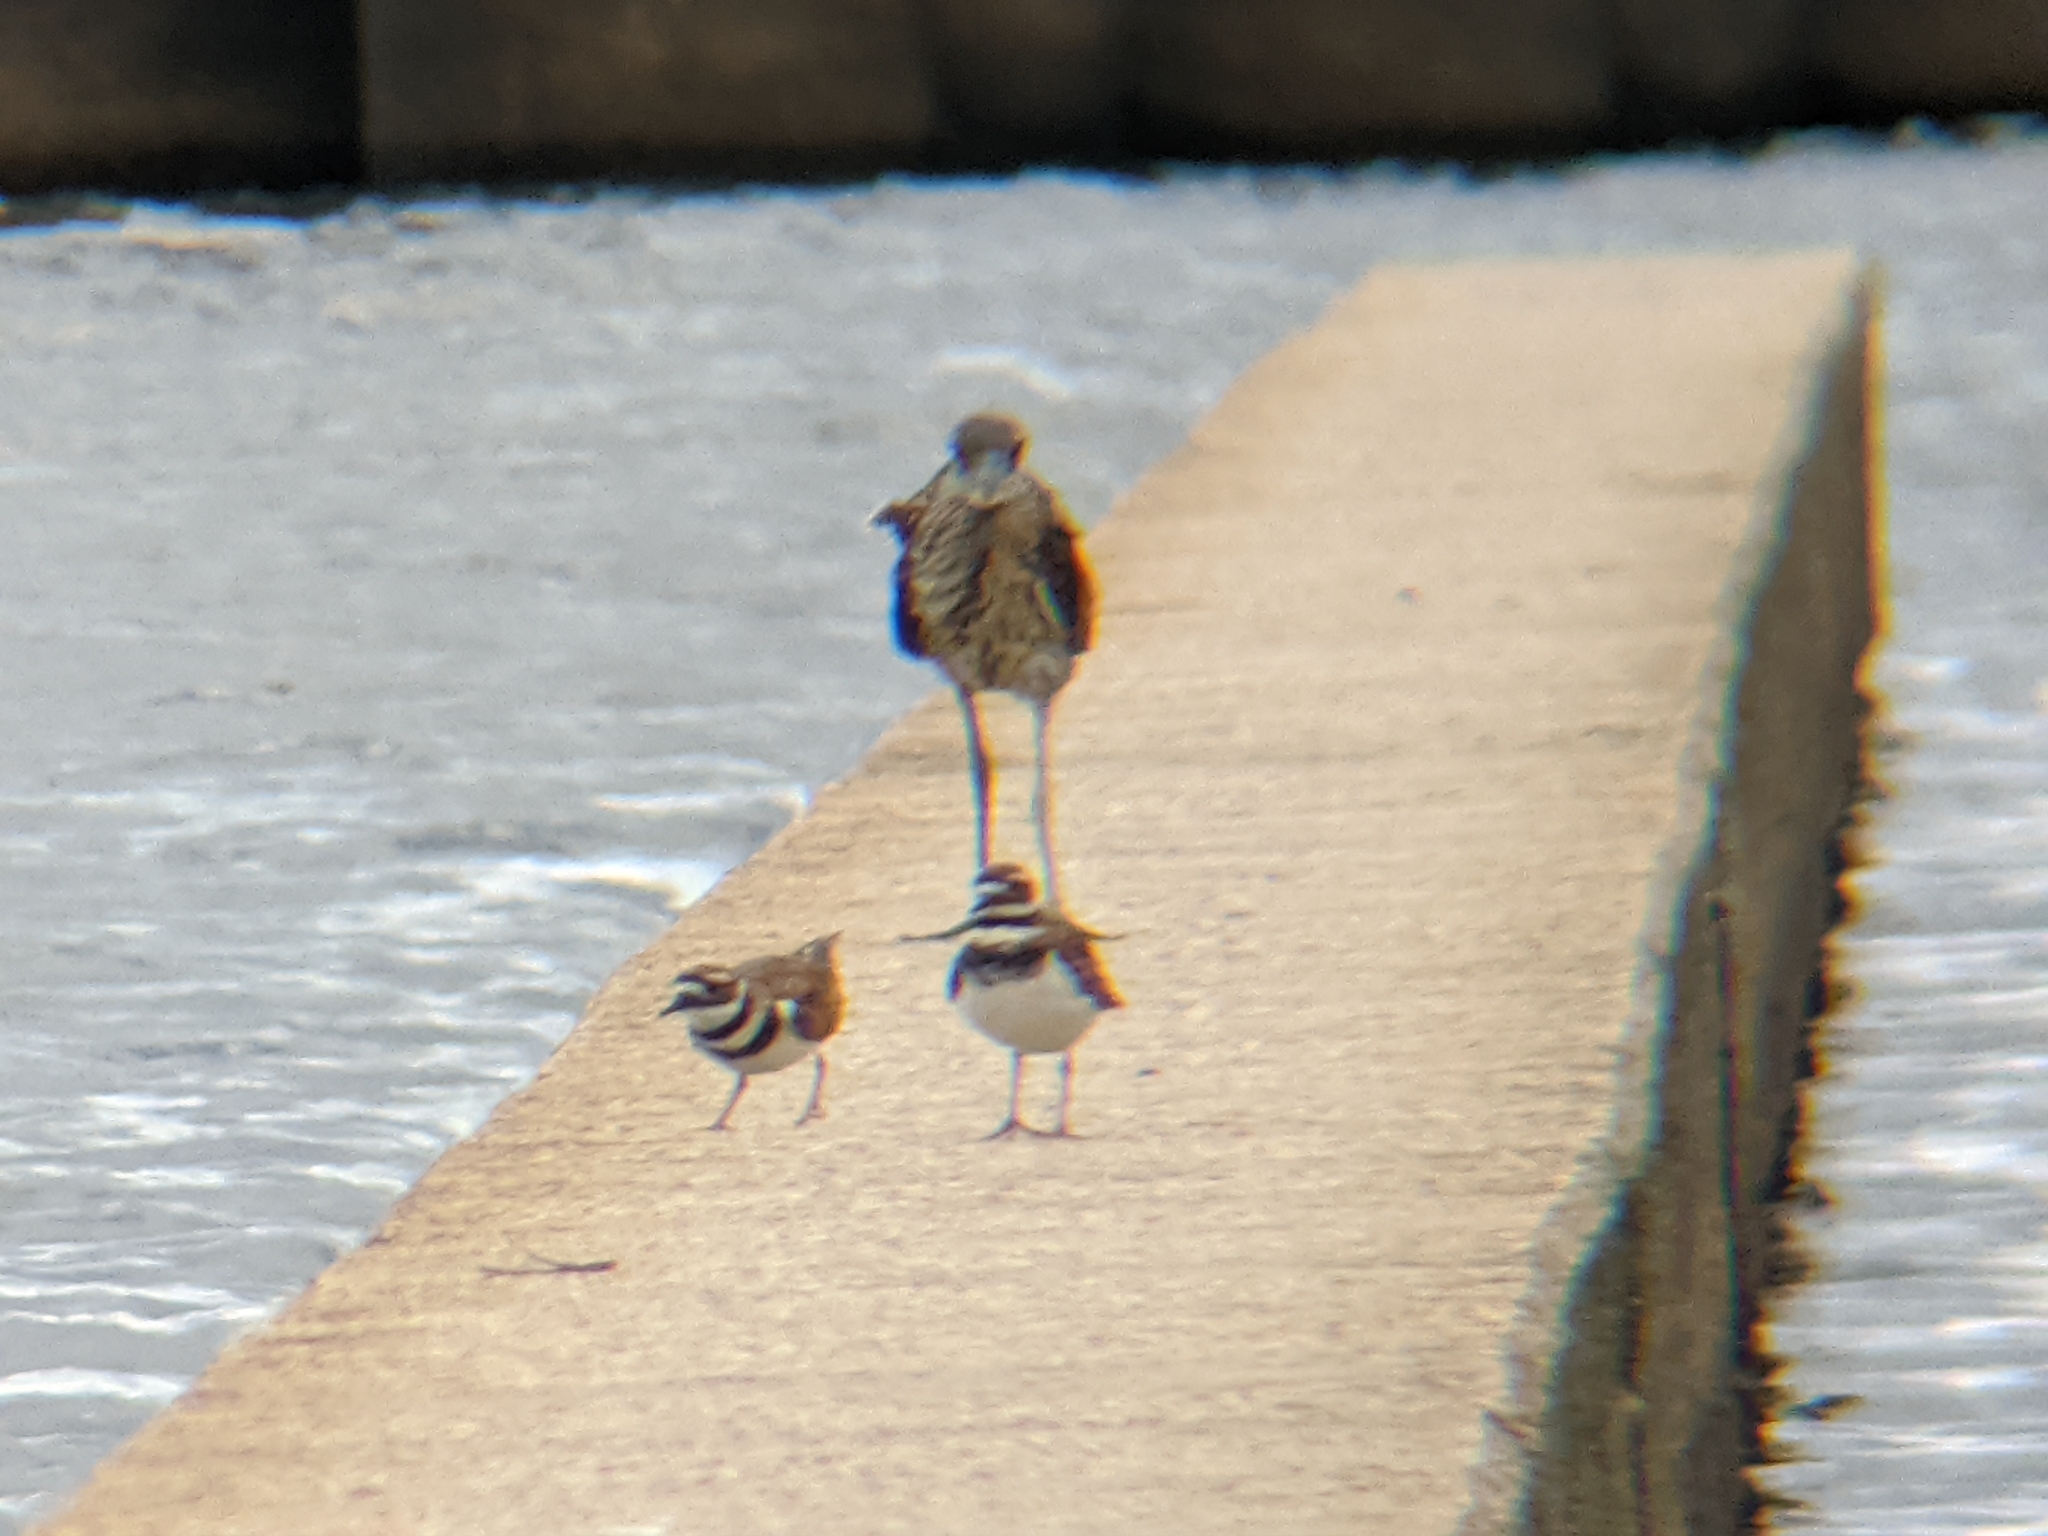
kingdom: Animalia
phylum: Chordata
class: Aves
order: Pelecaniformes
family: Ardeidae
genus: Nyctanassa
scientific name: Nyctanassa violacea
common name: Yellow-crowned night heron
